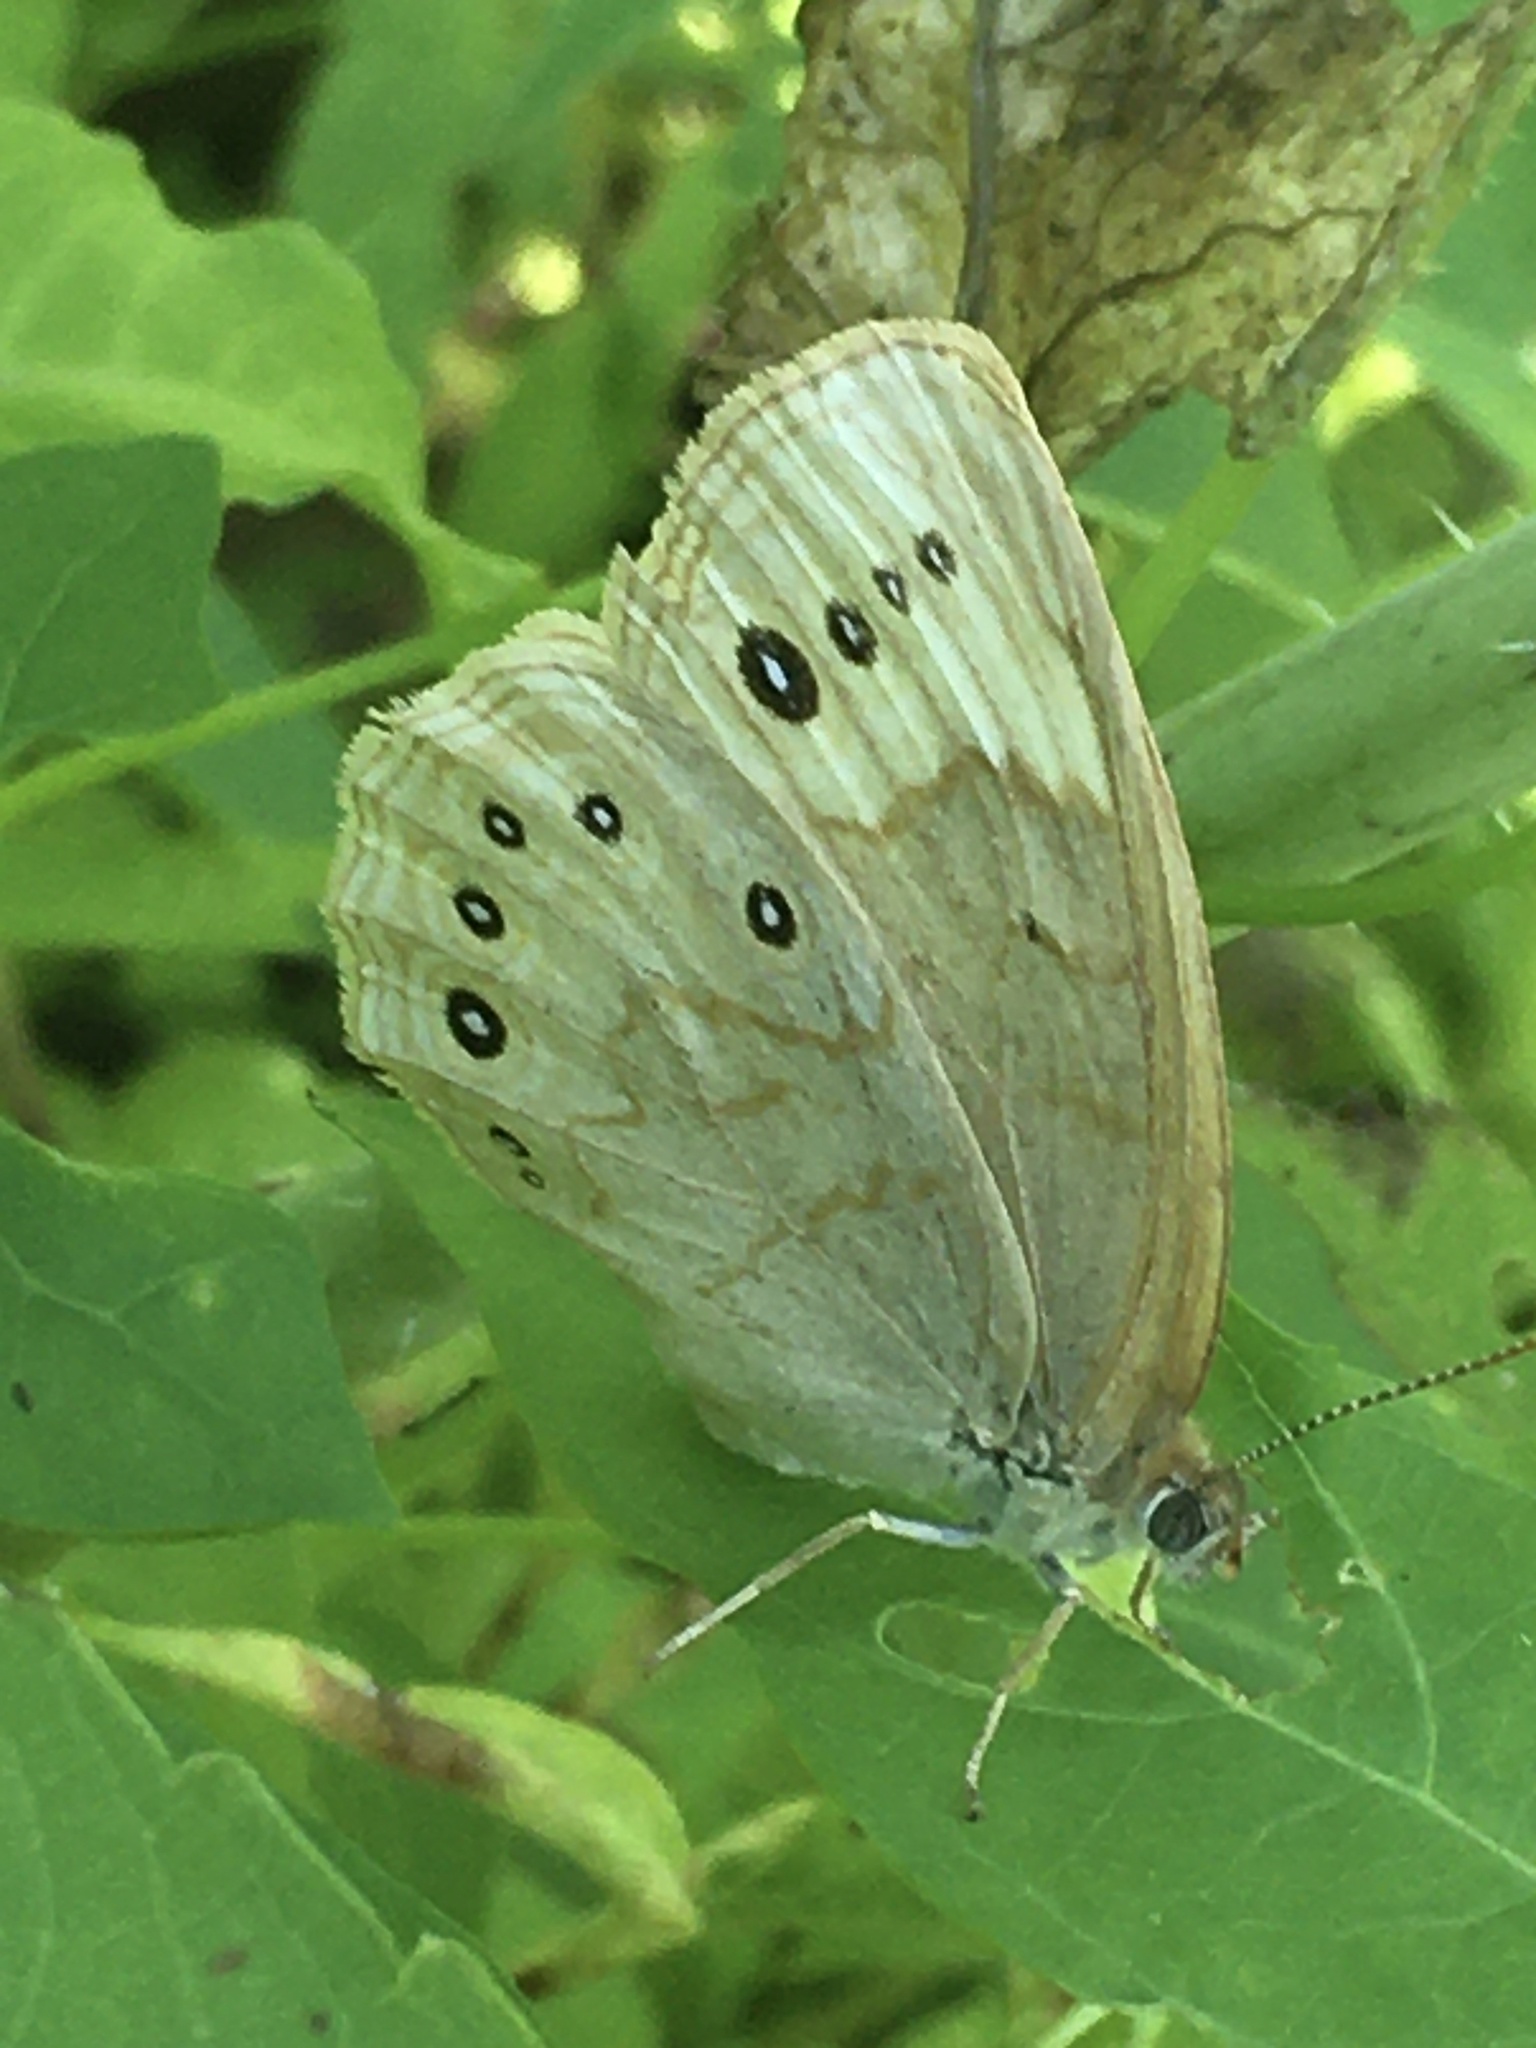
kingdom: Animalia
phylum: Arthropoda
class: Insecta
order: Lepidoptera
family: Nymphalidae
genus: Lethe
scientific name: Lethe eurydice
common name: Eyed brown
